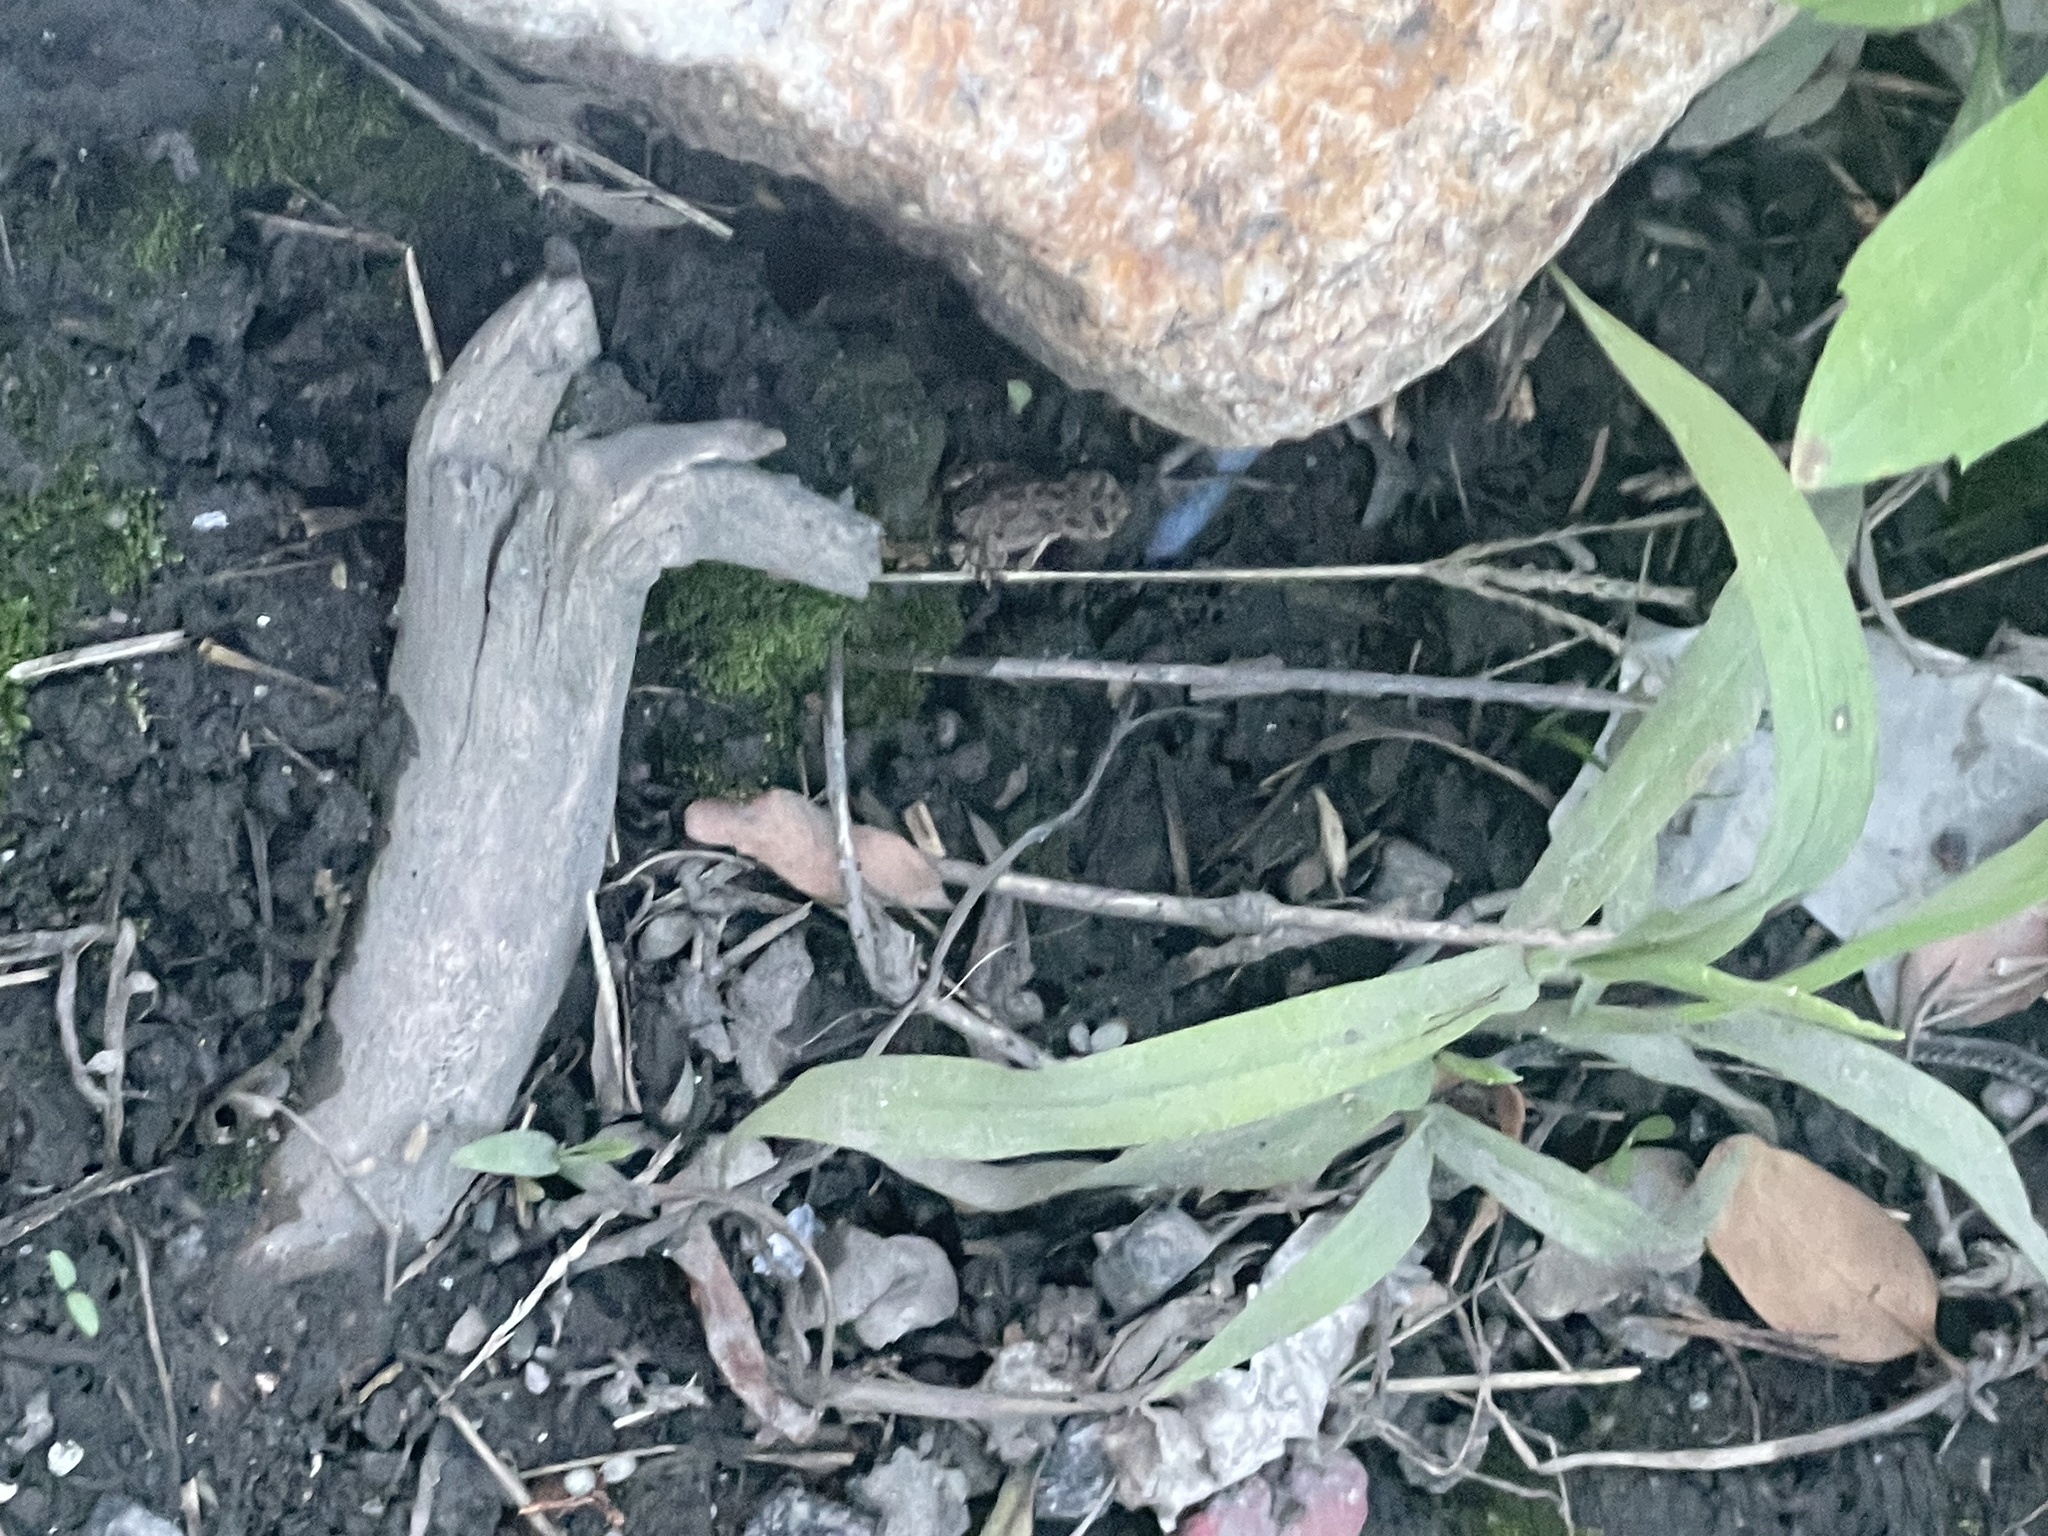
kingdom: Animalia
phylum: Chordata
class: Amphibia
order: Anura
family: Bufonidae
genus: Anaxyrus
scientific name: Anaxyrus fowleri
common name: Fowler's toad
